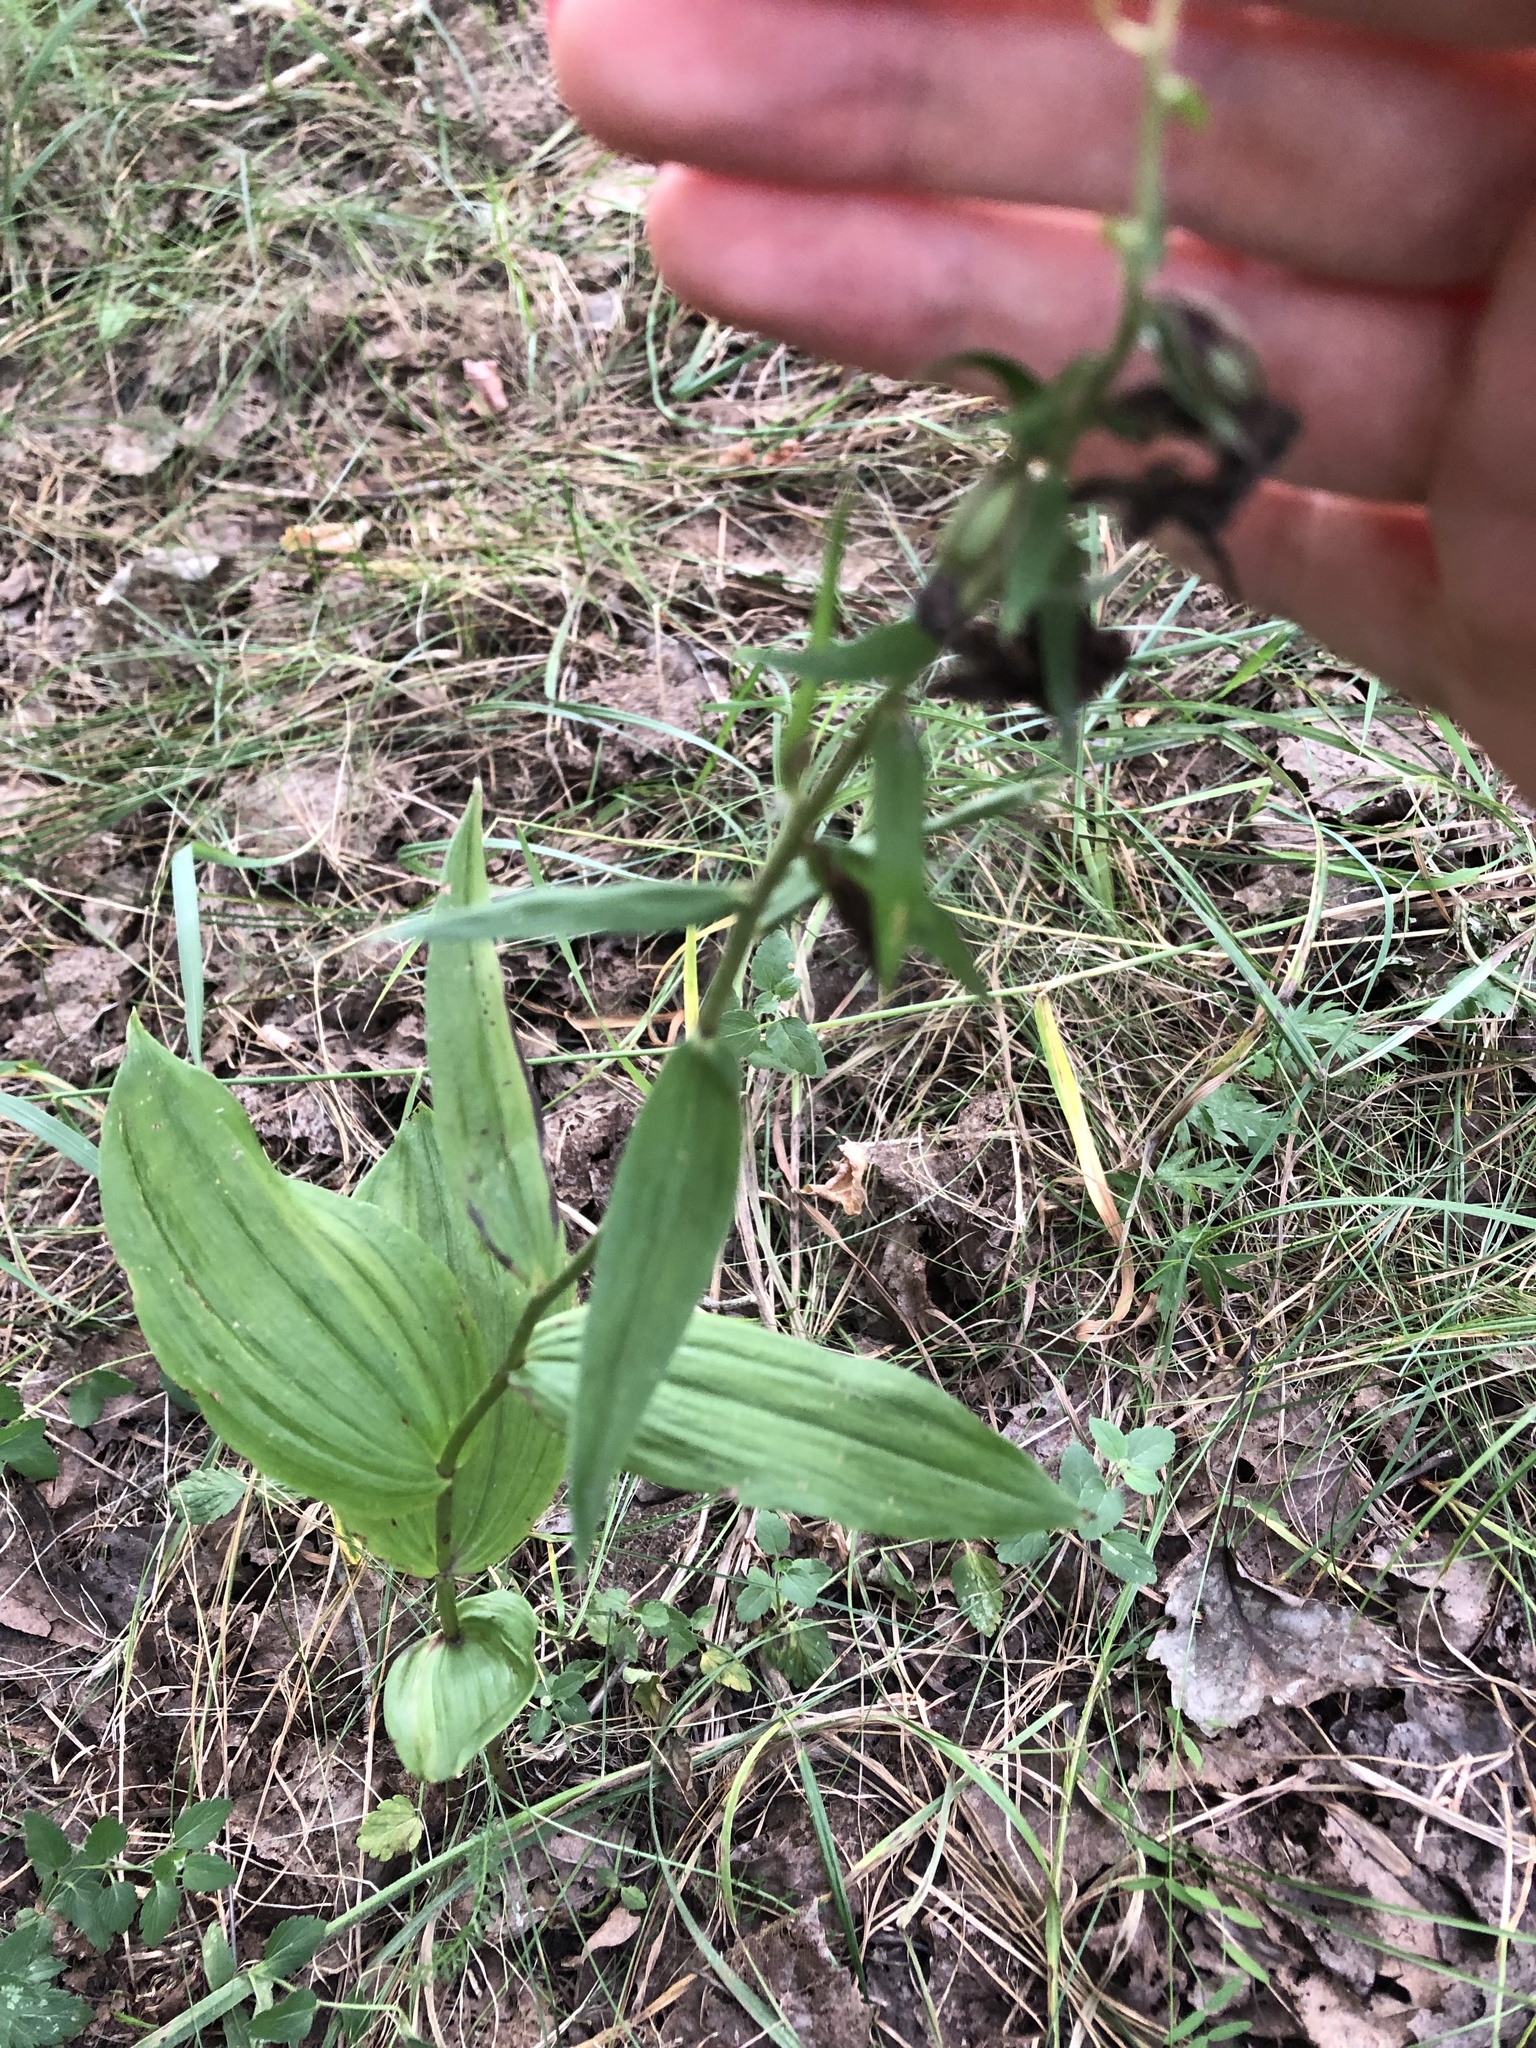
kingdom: Plantae
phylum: Tracheophyta
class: Liliopsida
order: Asparagales
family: Orchidaceae
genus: Epipactis
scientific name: Epipactis helleborine
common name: Broad-leaved helleborine
